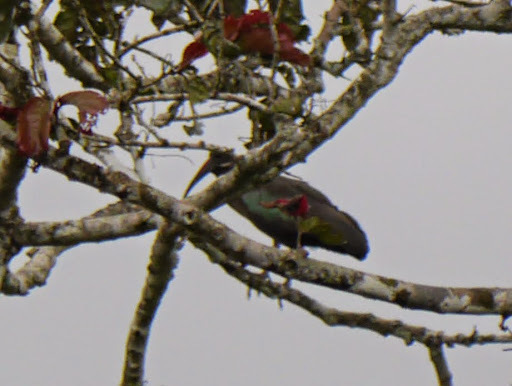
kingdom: Animalia
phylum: Chordata
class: Aves
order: Pelecaniformes
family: Threskiornithidae
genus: Bostrychia
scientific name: Bostrychia hagedash
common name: Hadada ibis
